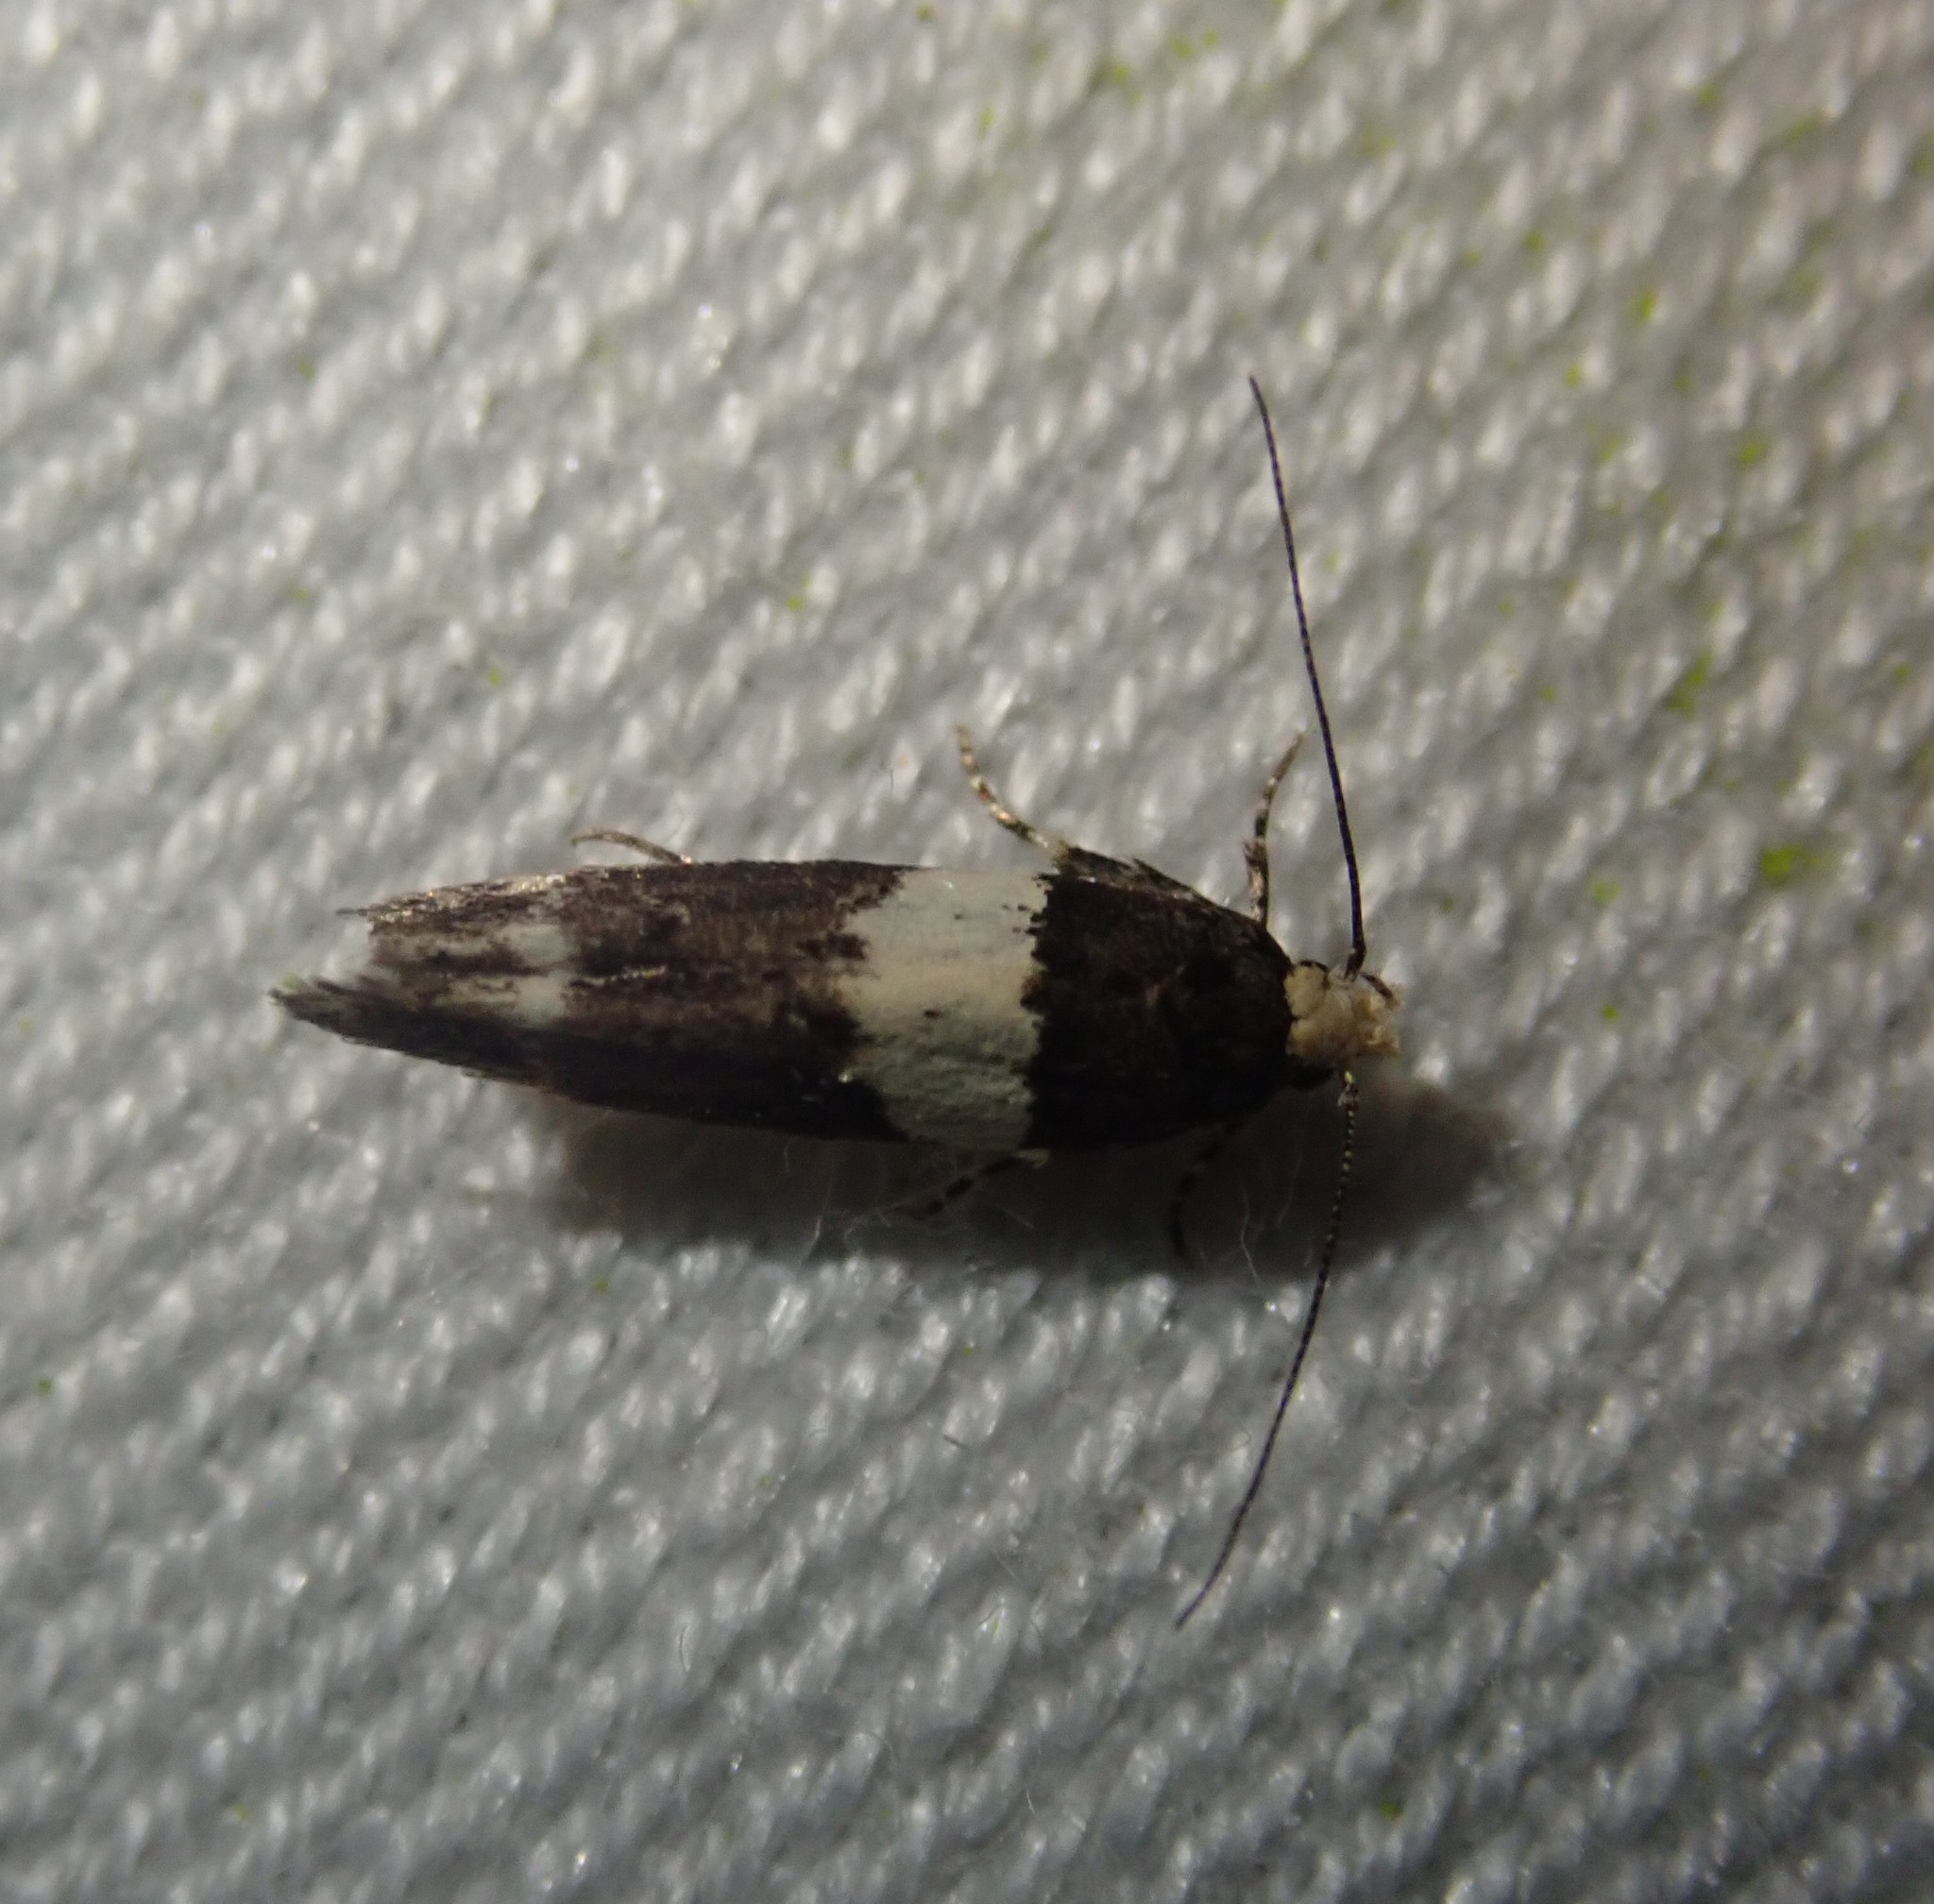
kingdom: Animalia
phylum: Arthropoda
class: Insecta
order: Lepidoptera
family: Gelechiidae
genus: Recurvaria
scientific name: Recurvaria leucatella
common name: White-barred groundling
